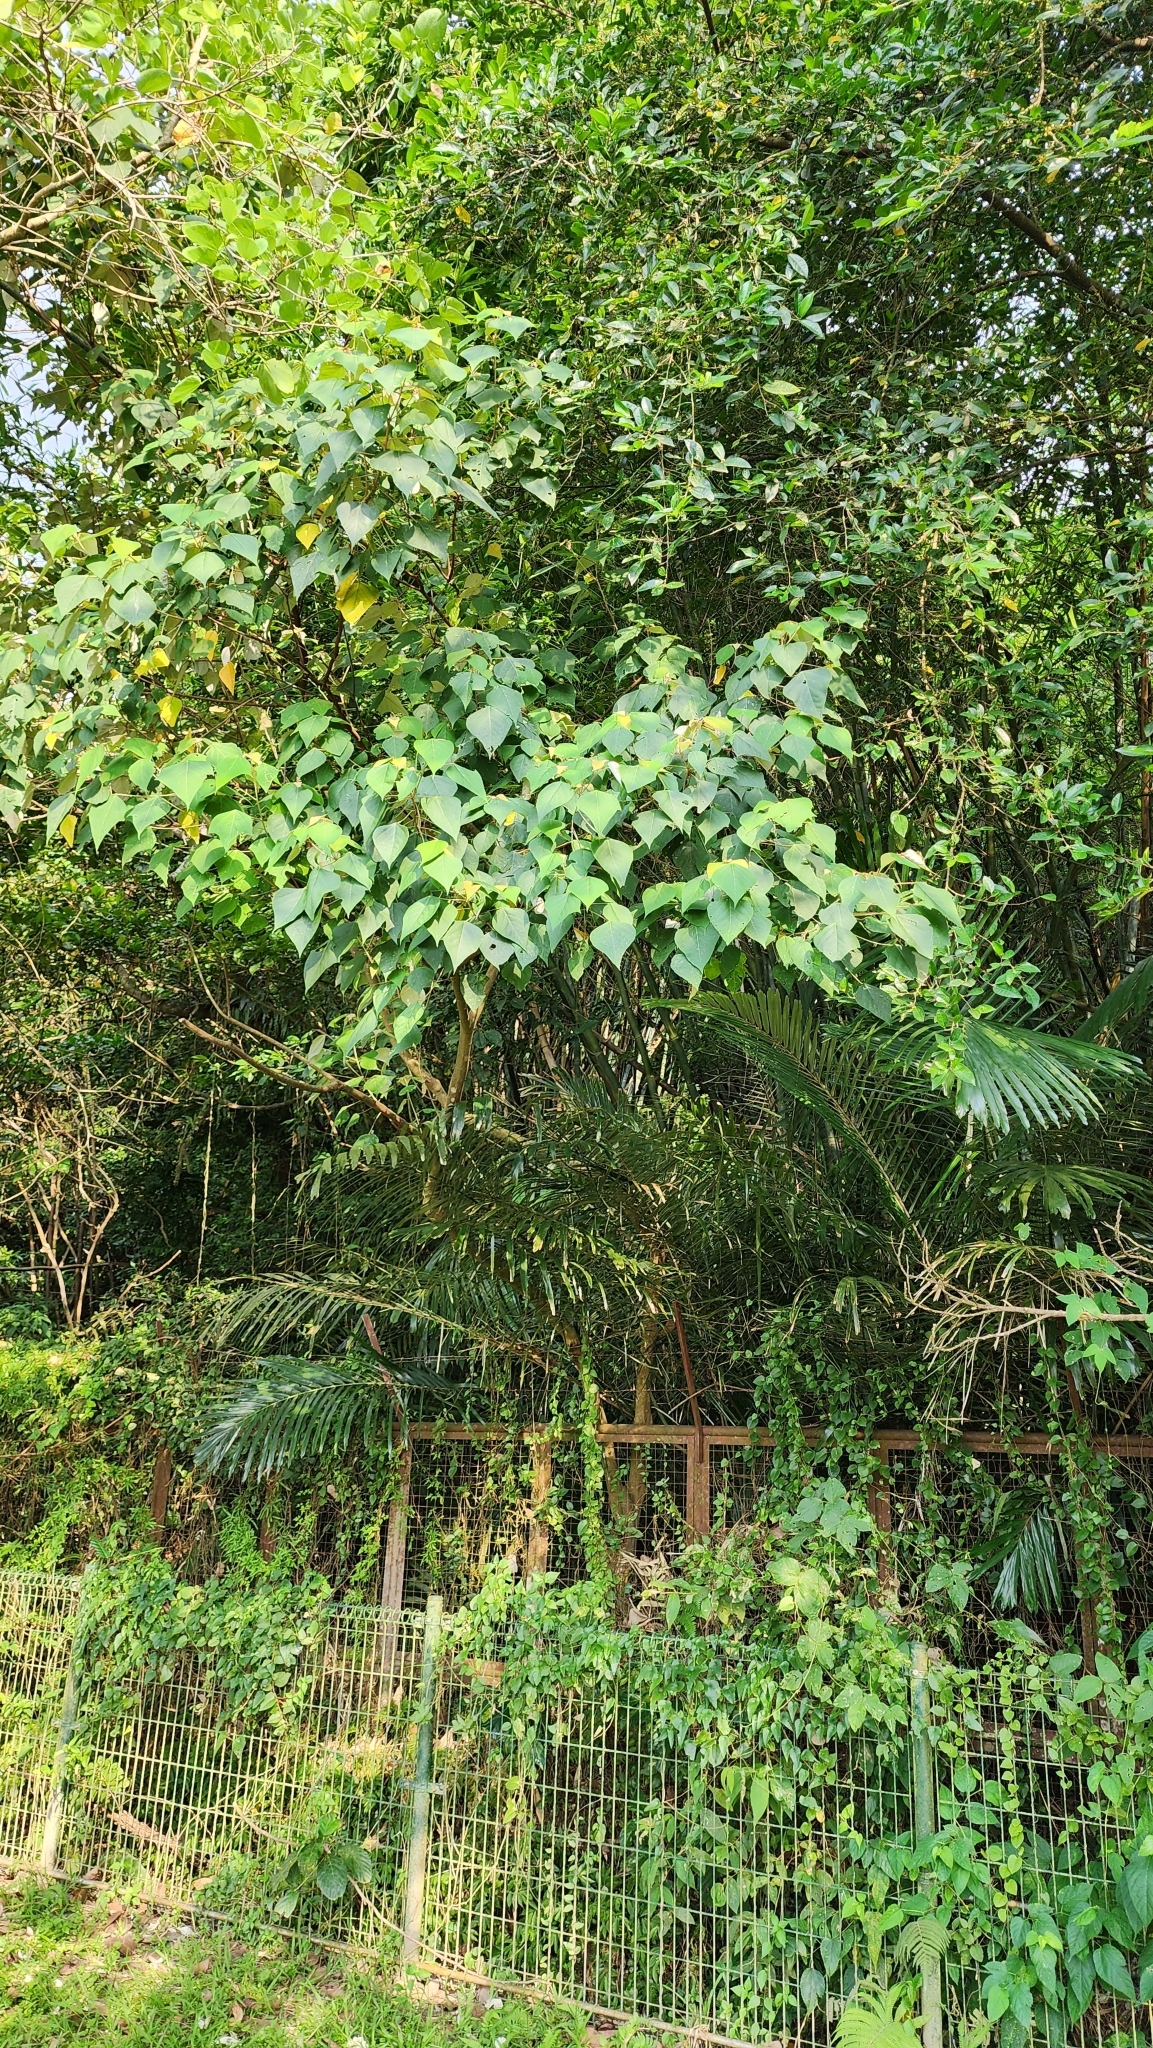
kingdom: Plantae
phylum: Tracheophyta
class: Magnoliopsida
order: Malpighiales
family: Euphorbiaceae
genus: Mallotus
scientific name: Mallotus paniculatus
